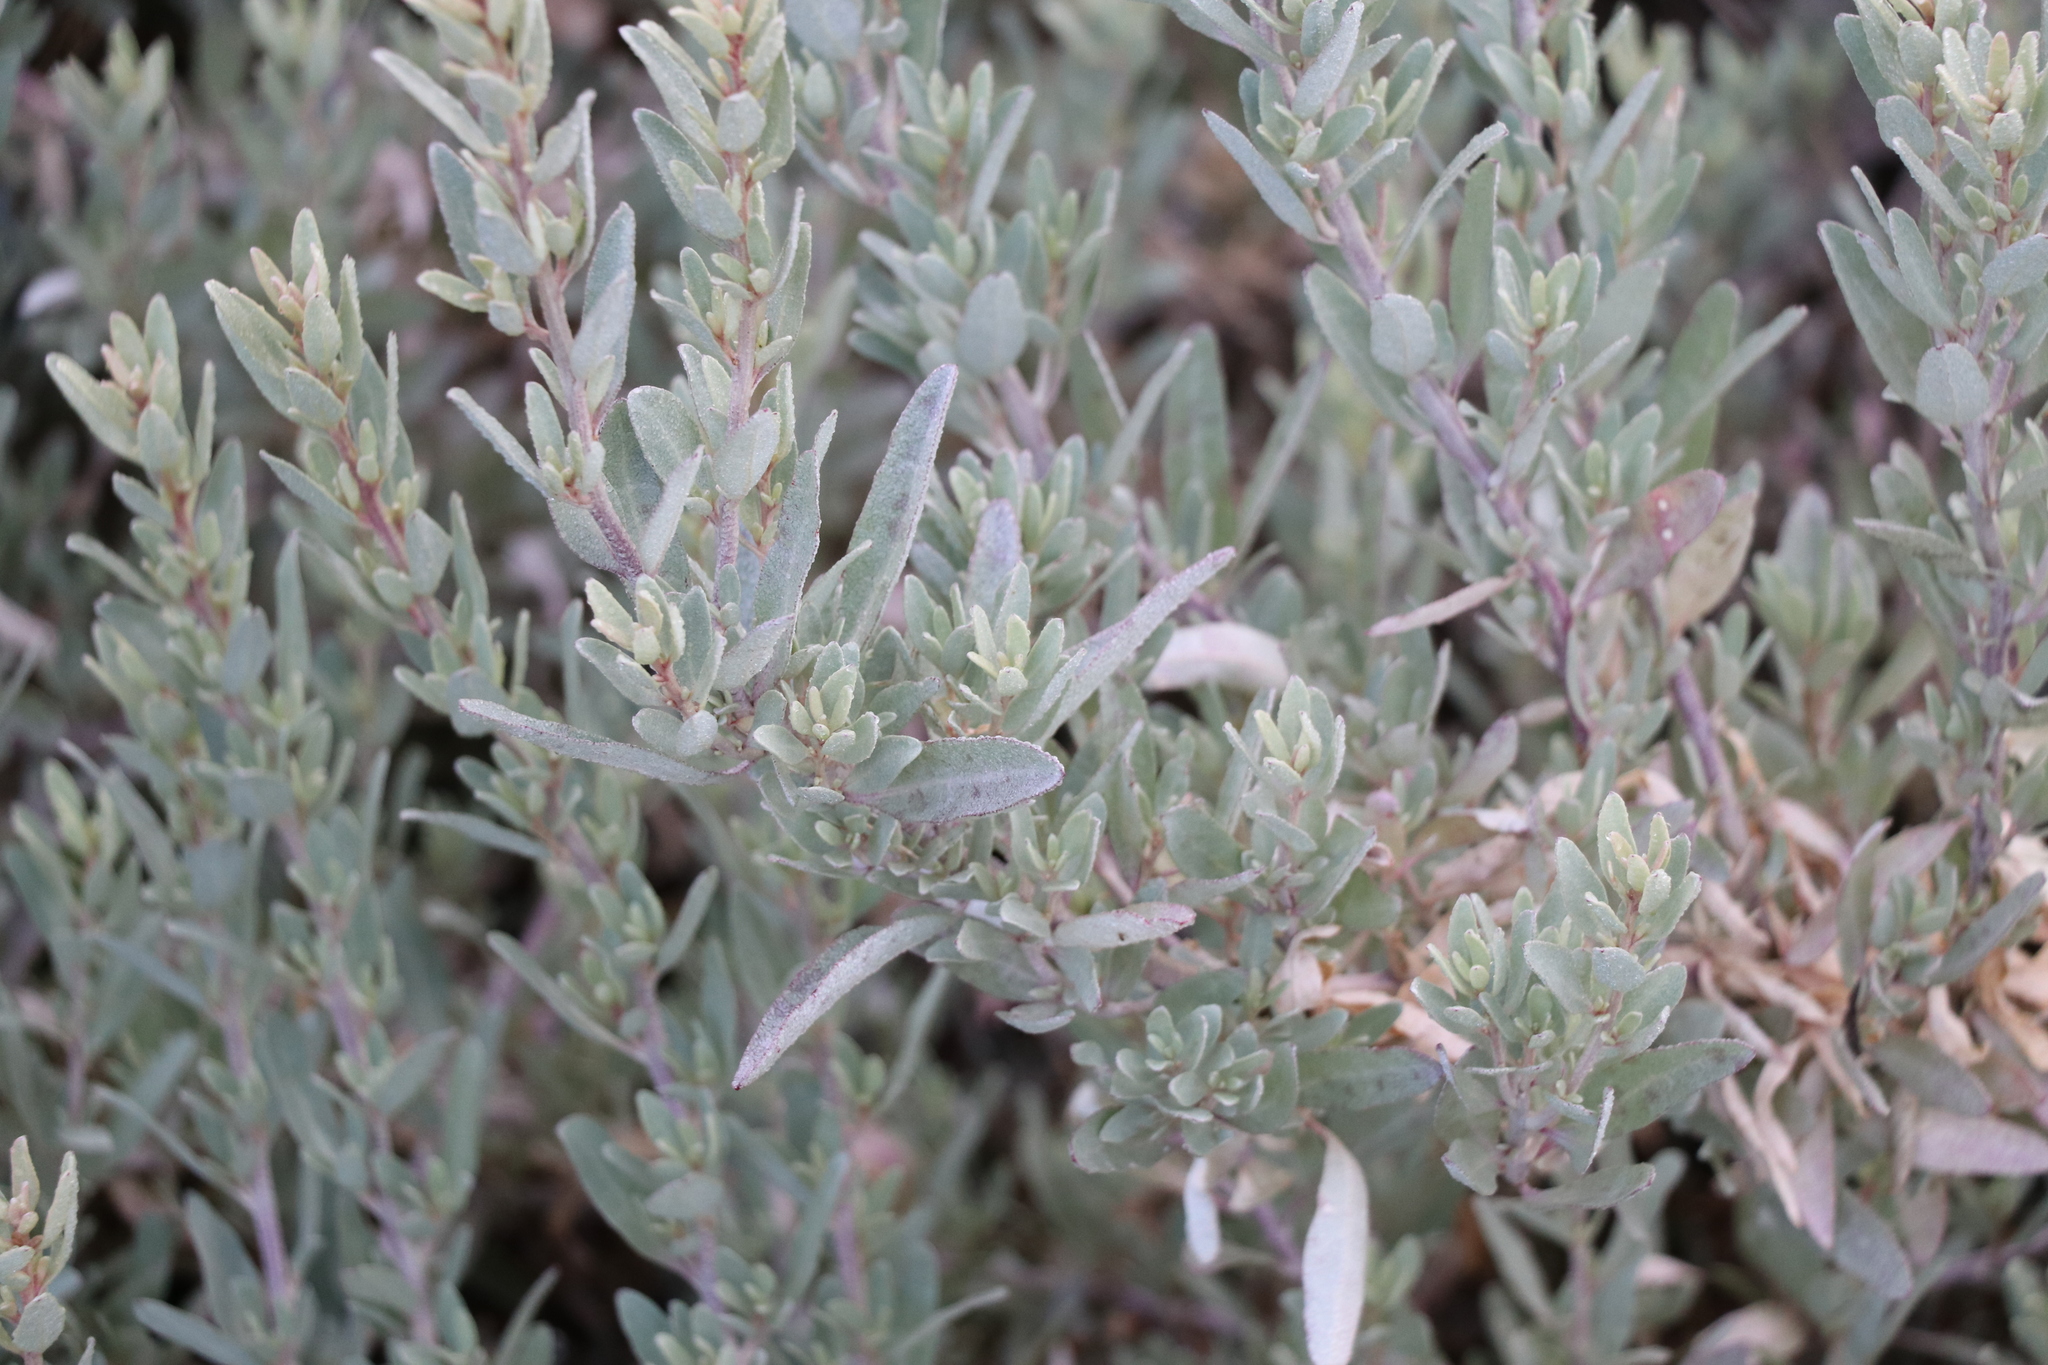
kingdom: Plantae
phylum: Tracheophyta
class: Magnoliopsida
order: Caryophyllales
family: Amaranthaceae
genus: Atriplex
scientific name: Atriplex cinerea
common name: Grey saltbush
